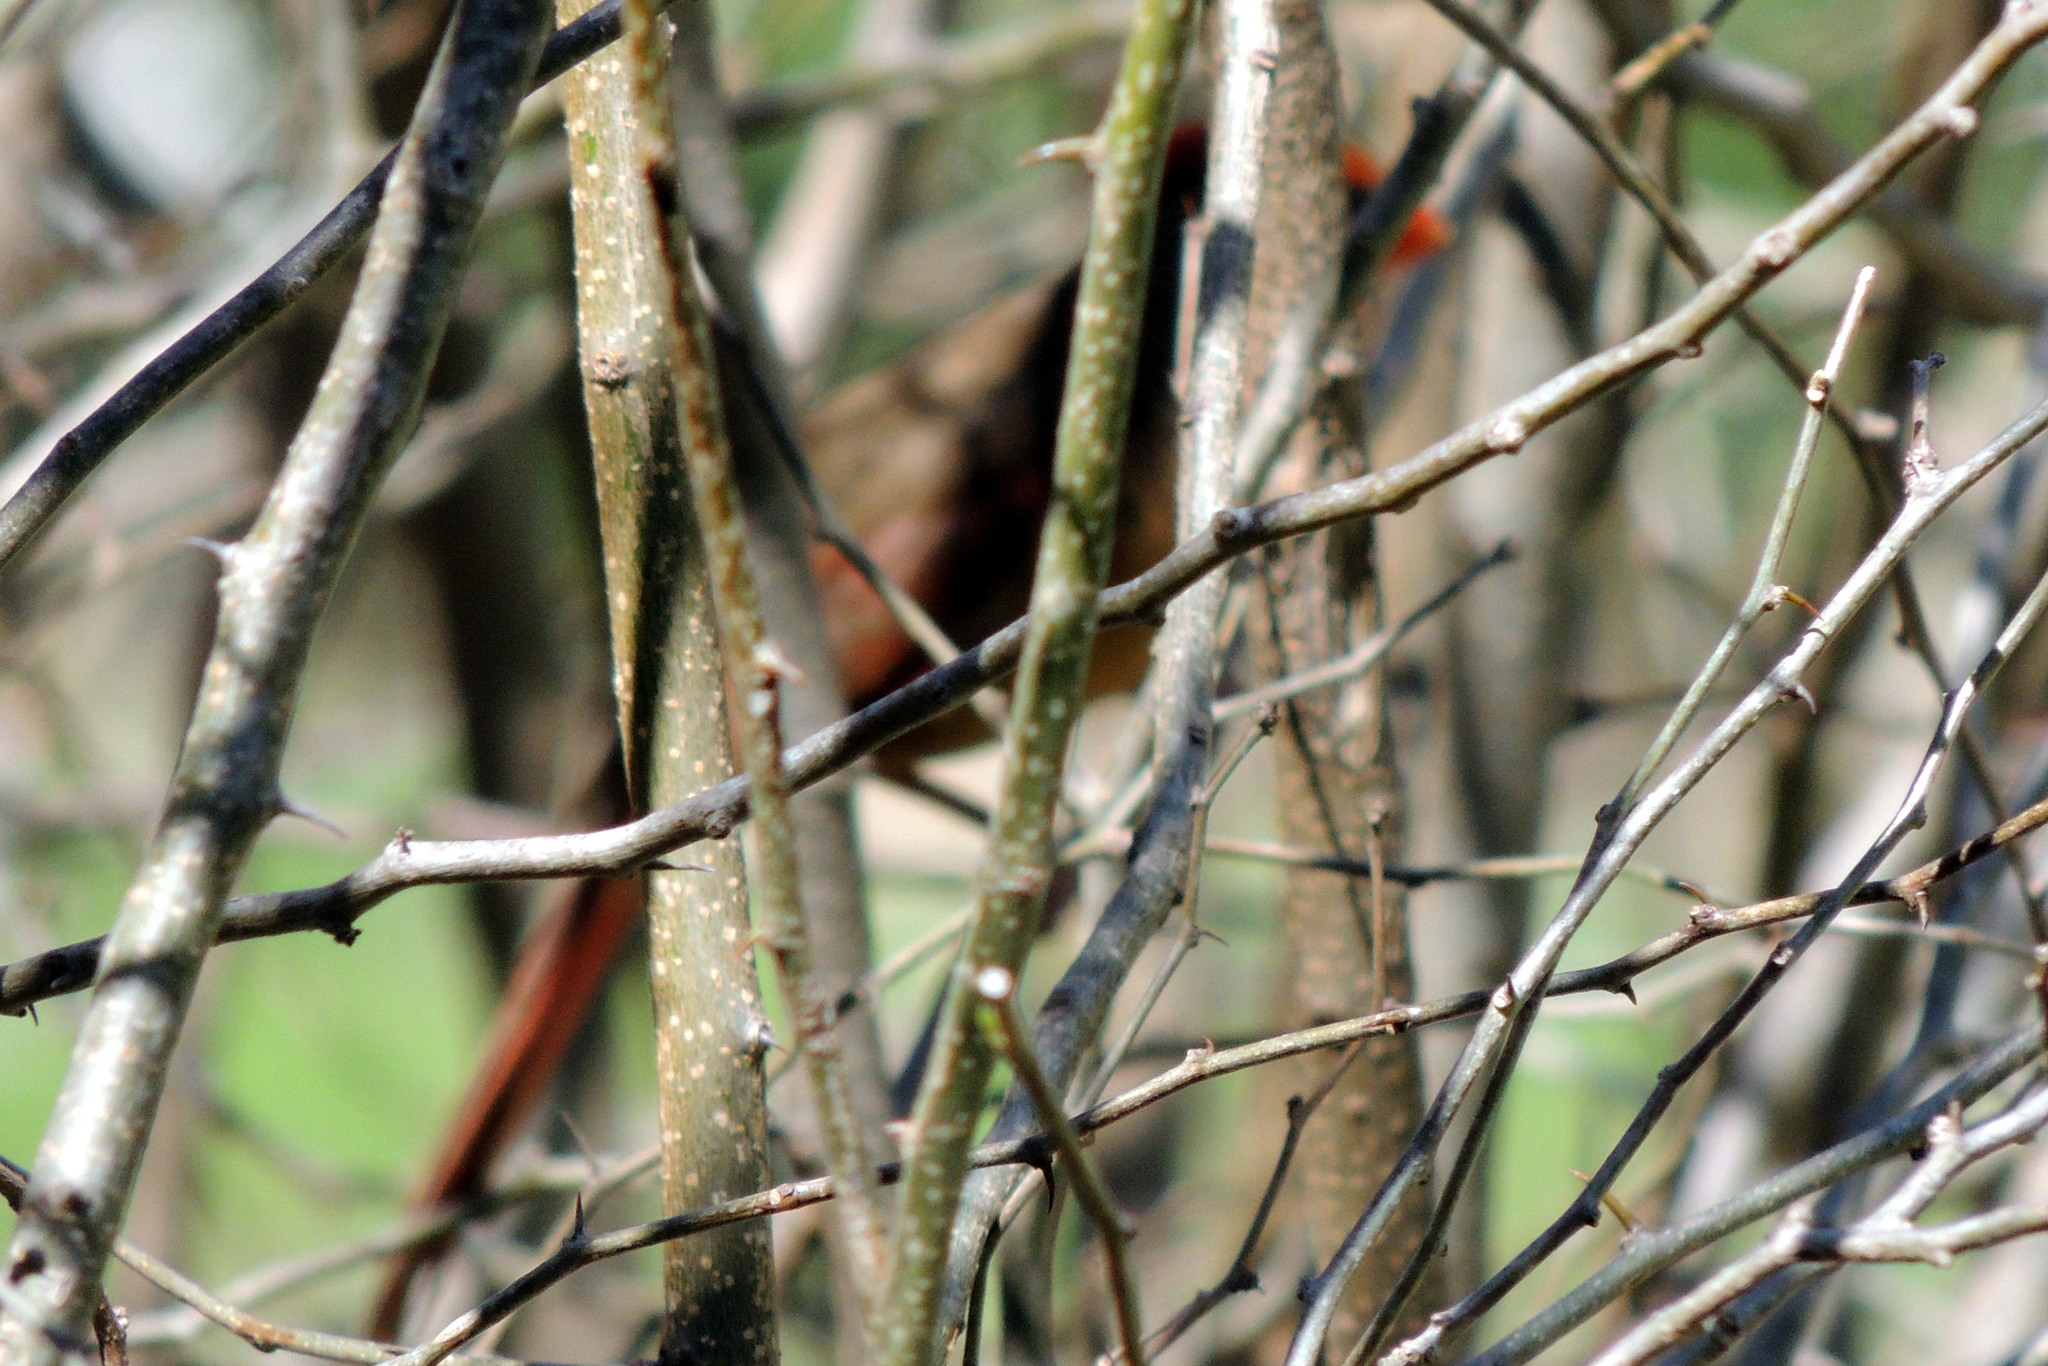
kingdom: Animalia
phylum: Chordata
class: Aves
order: Passeriformes
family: Cardinalidae
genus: Cardinalis
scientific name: Cardinalis cardinalis
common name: Northern cardinal
